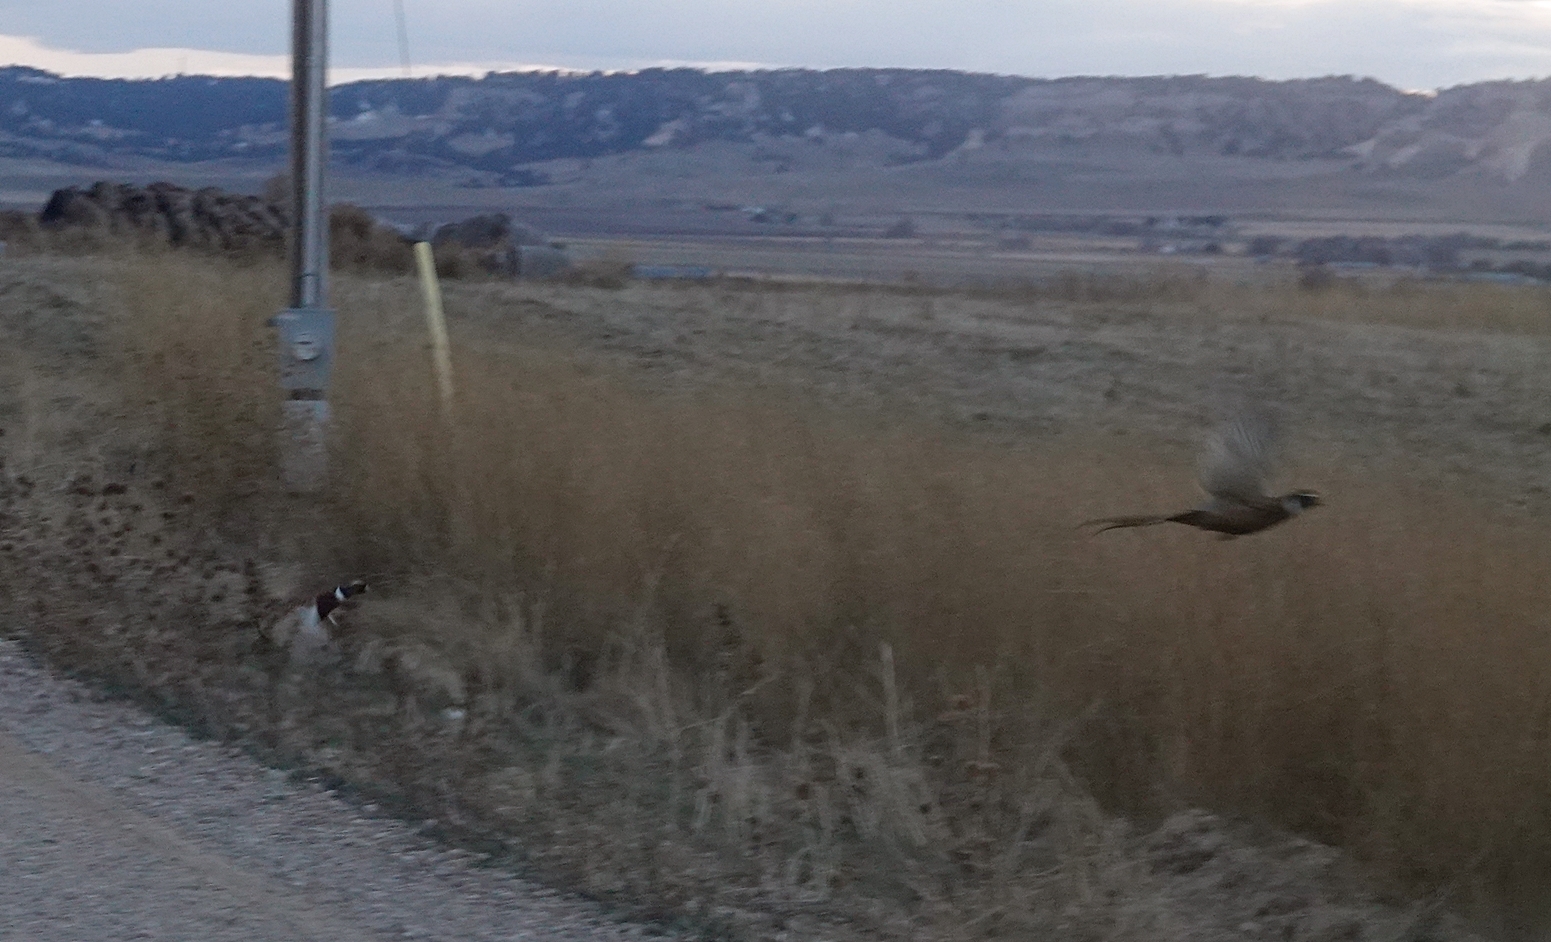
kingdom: Animalia
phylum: Chordata
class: Aves
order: Galliformes
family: Phasianidae
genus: Phasianus
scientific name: Phasianus colchicus
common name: Common pheasant
